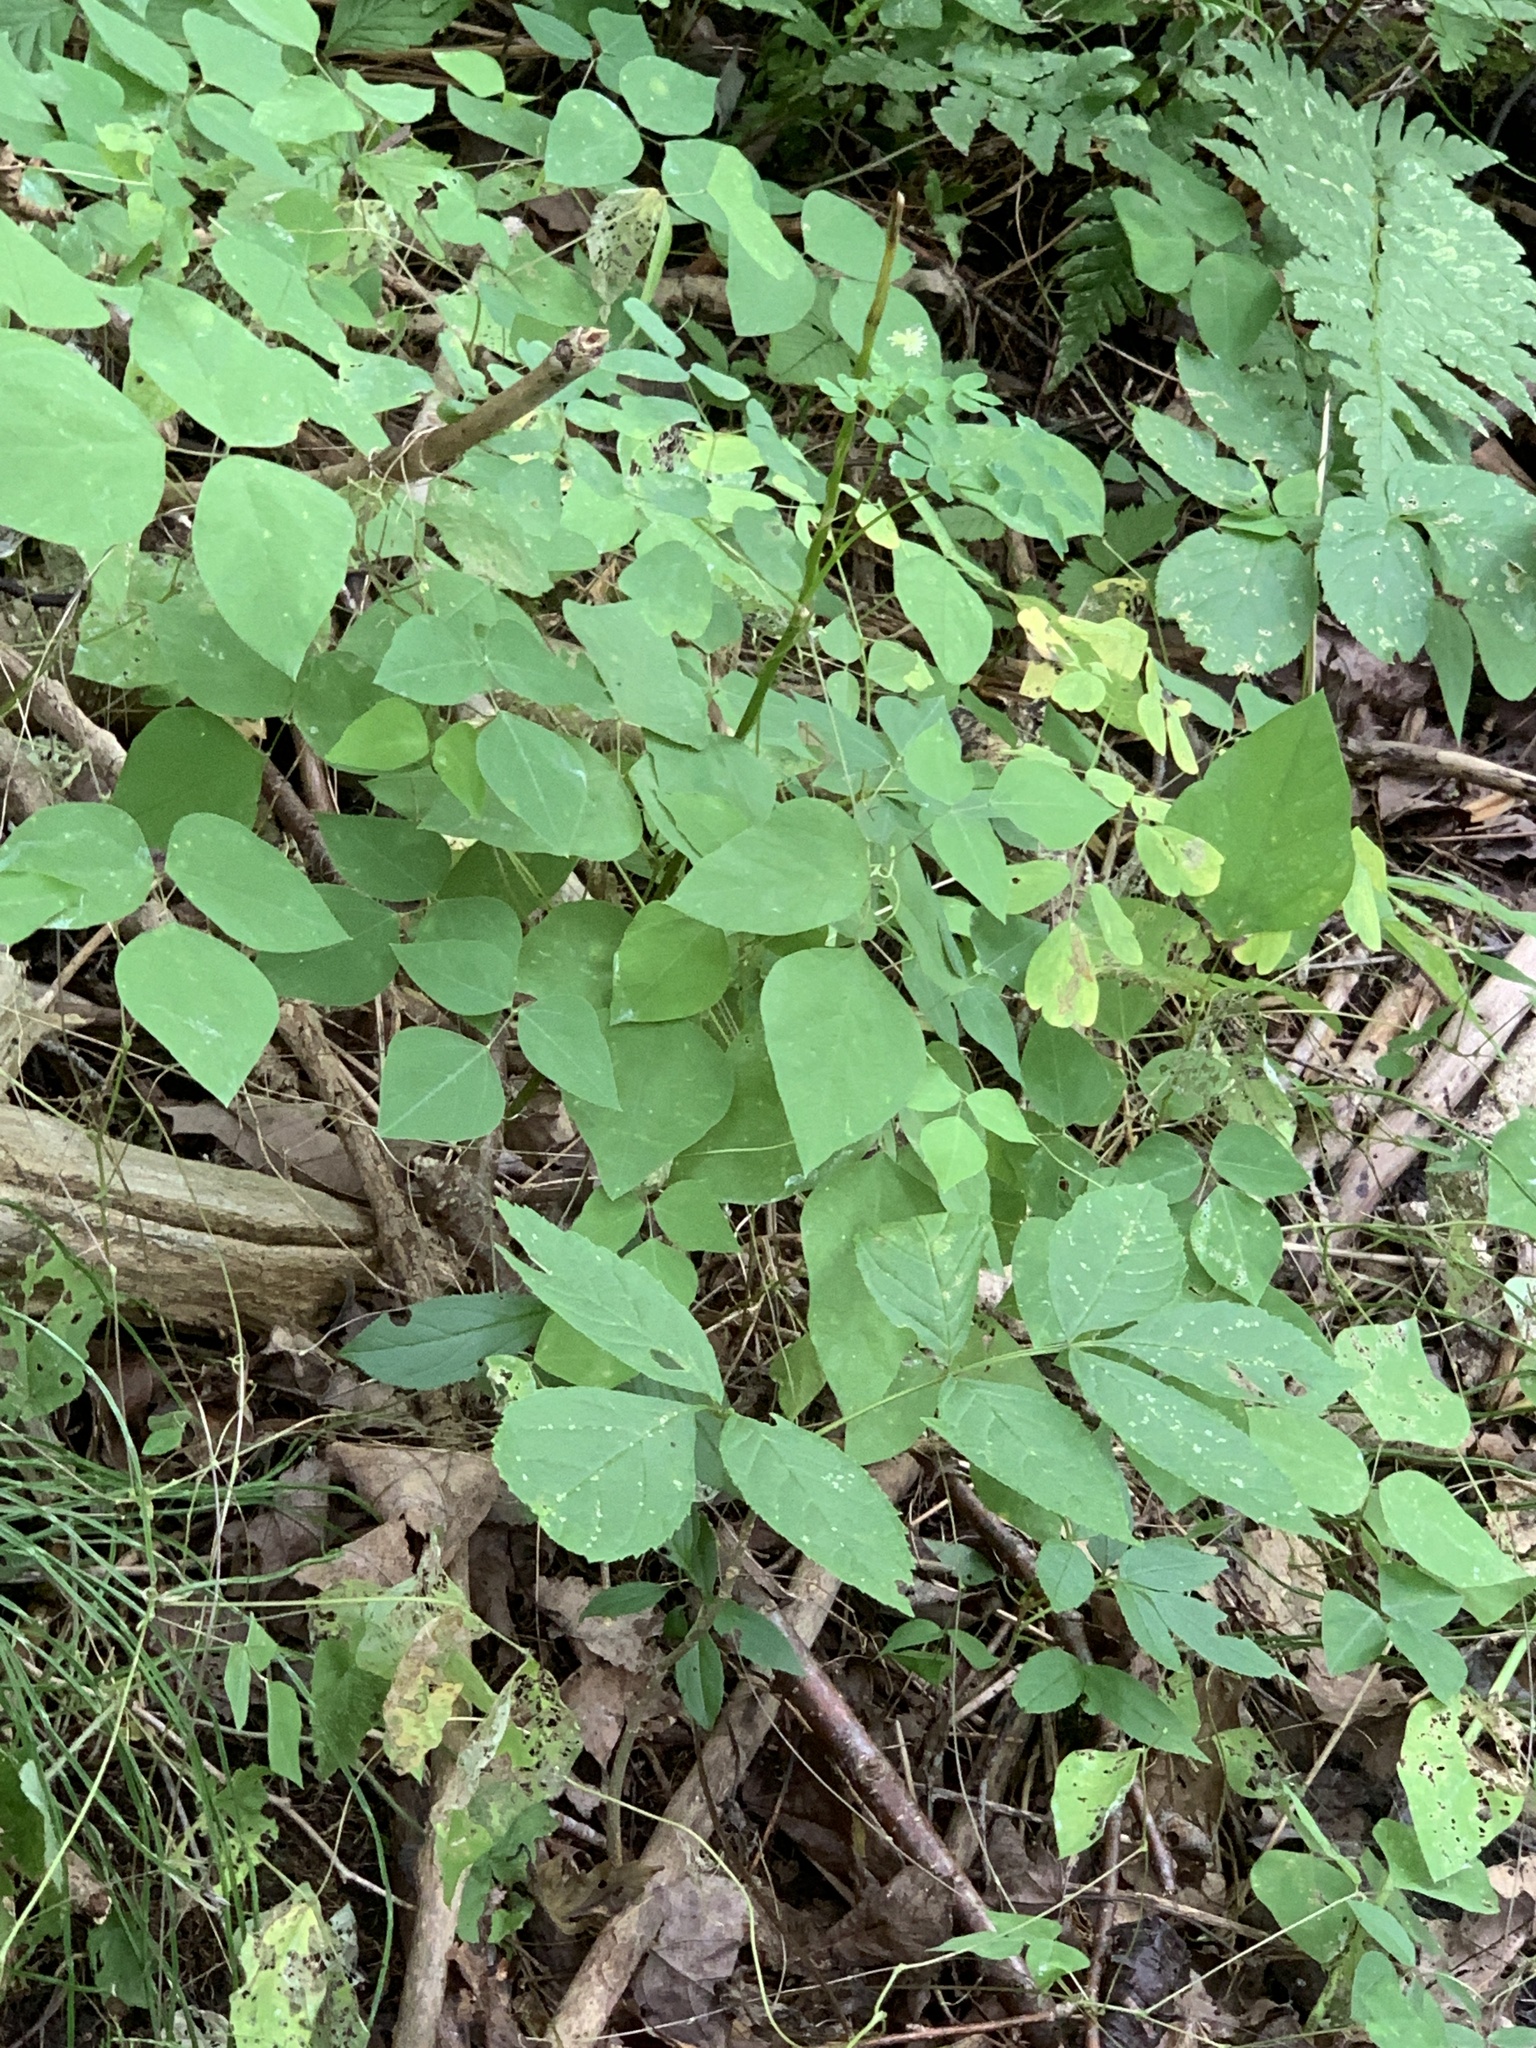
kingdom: Plantae
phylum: Tracheophyta
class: Magnoliopsida
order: Fabales
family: Fabaceae
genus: Amphicarpaea
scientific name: Amphicarpaea bracteata
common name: American hog peanut
